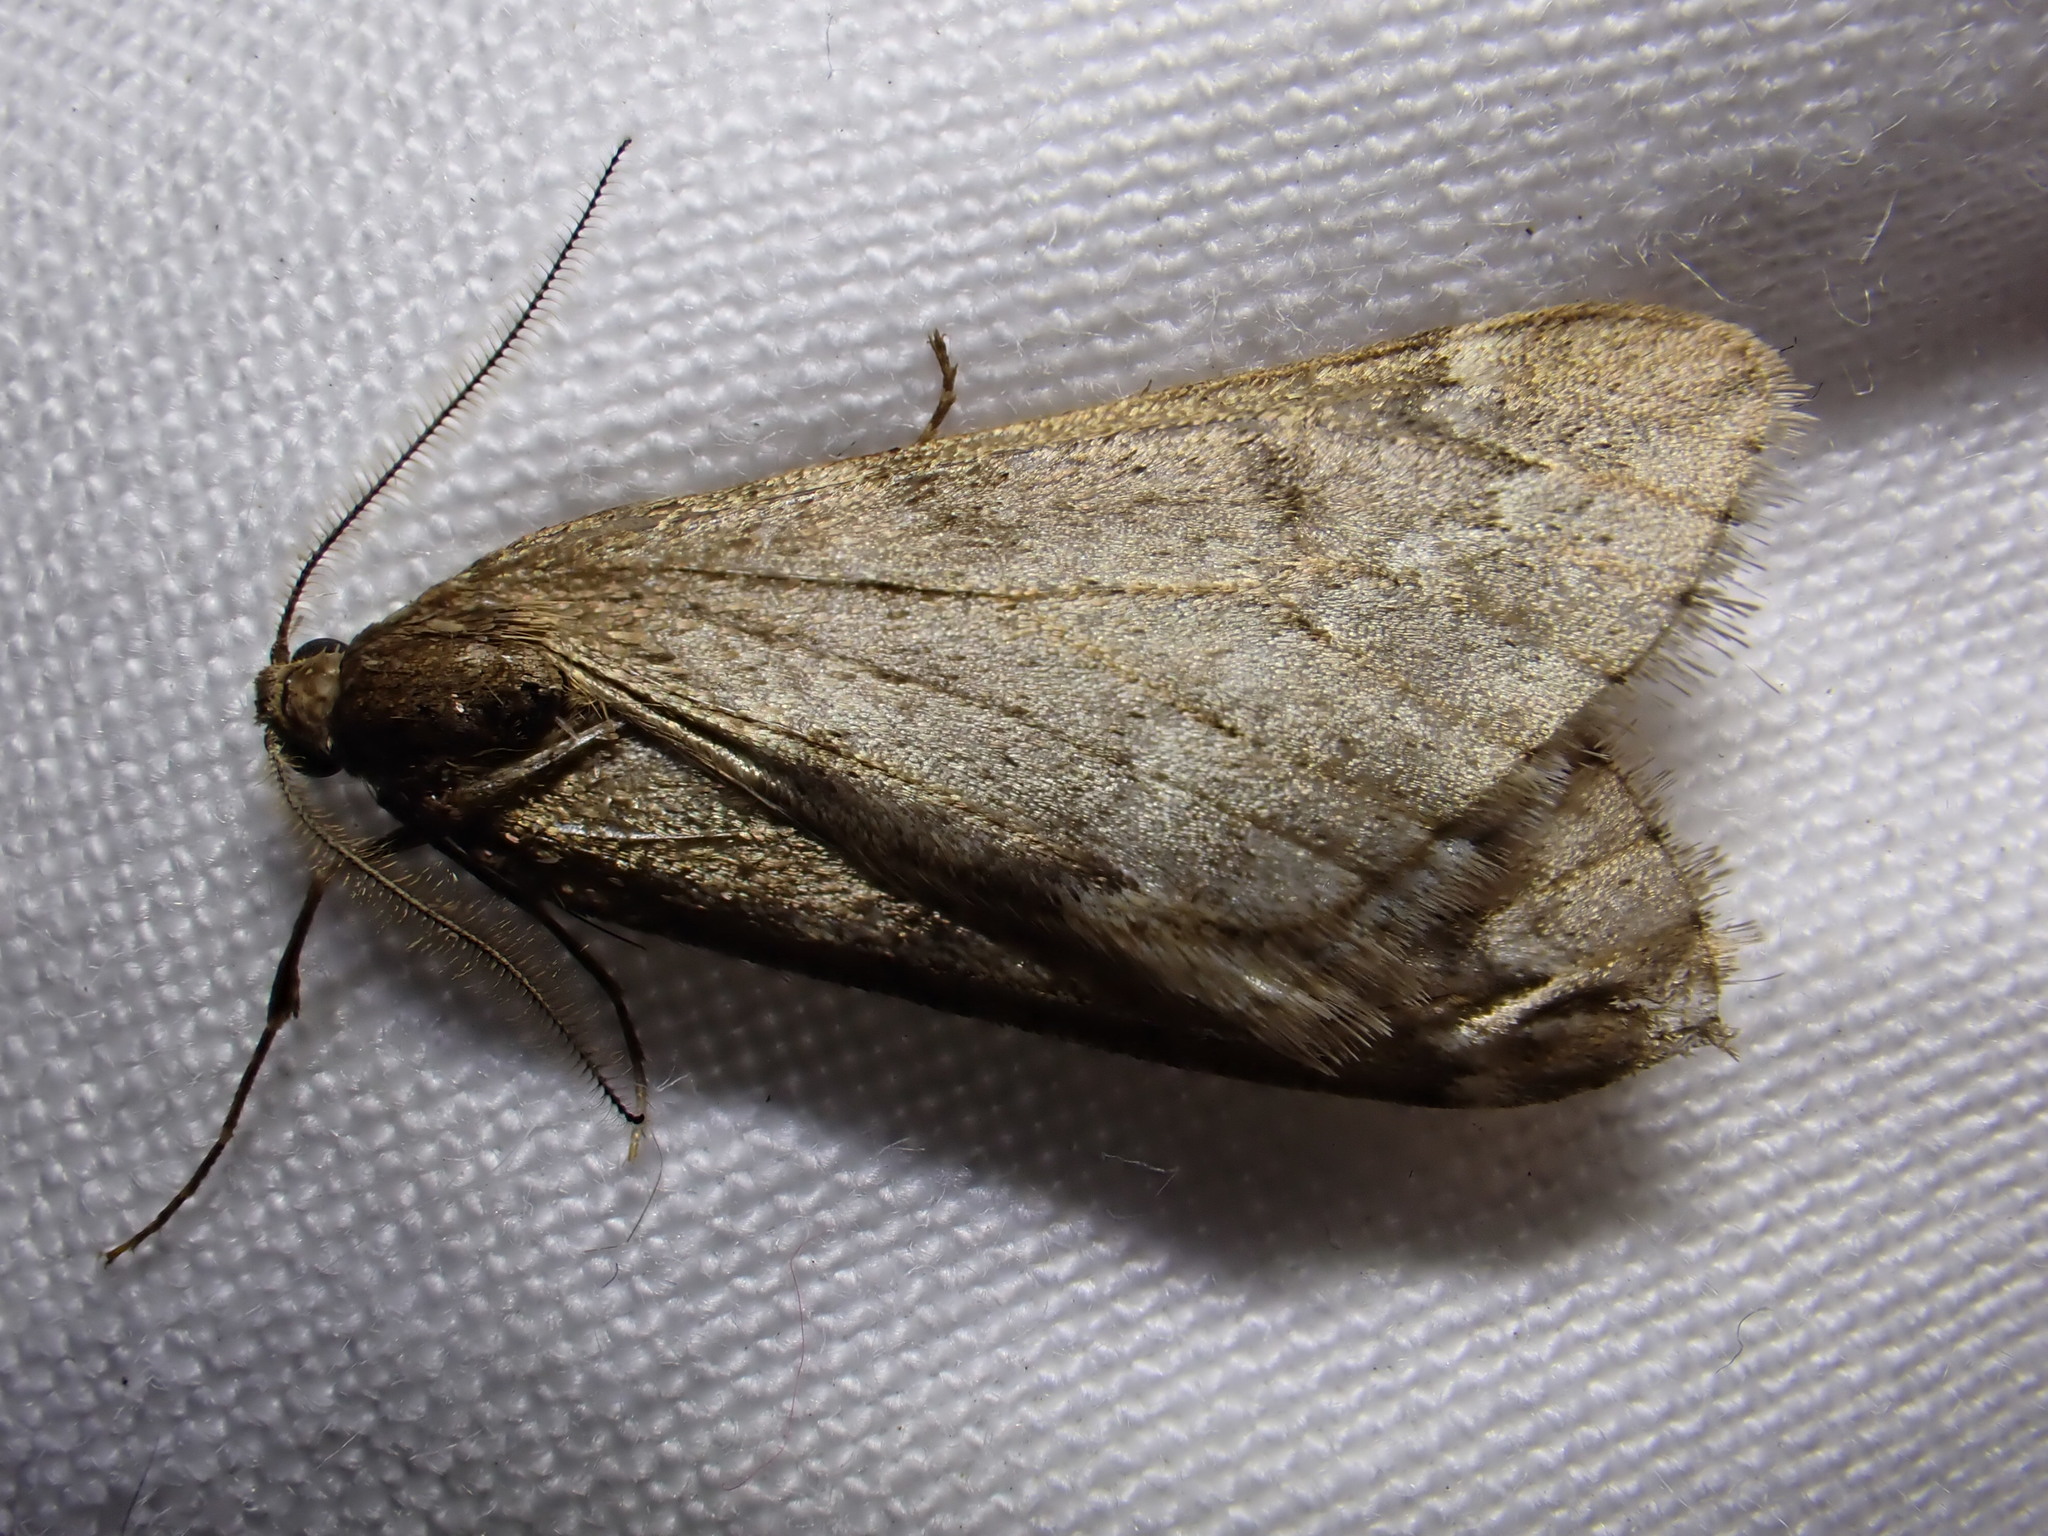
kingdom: Animalia
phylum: Arthropoda
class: Insecta
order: Lepidoptera
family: Geometridae
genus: Alsophila
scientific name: Alsophila aescularia
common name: March moth
